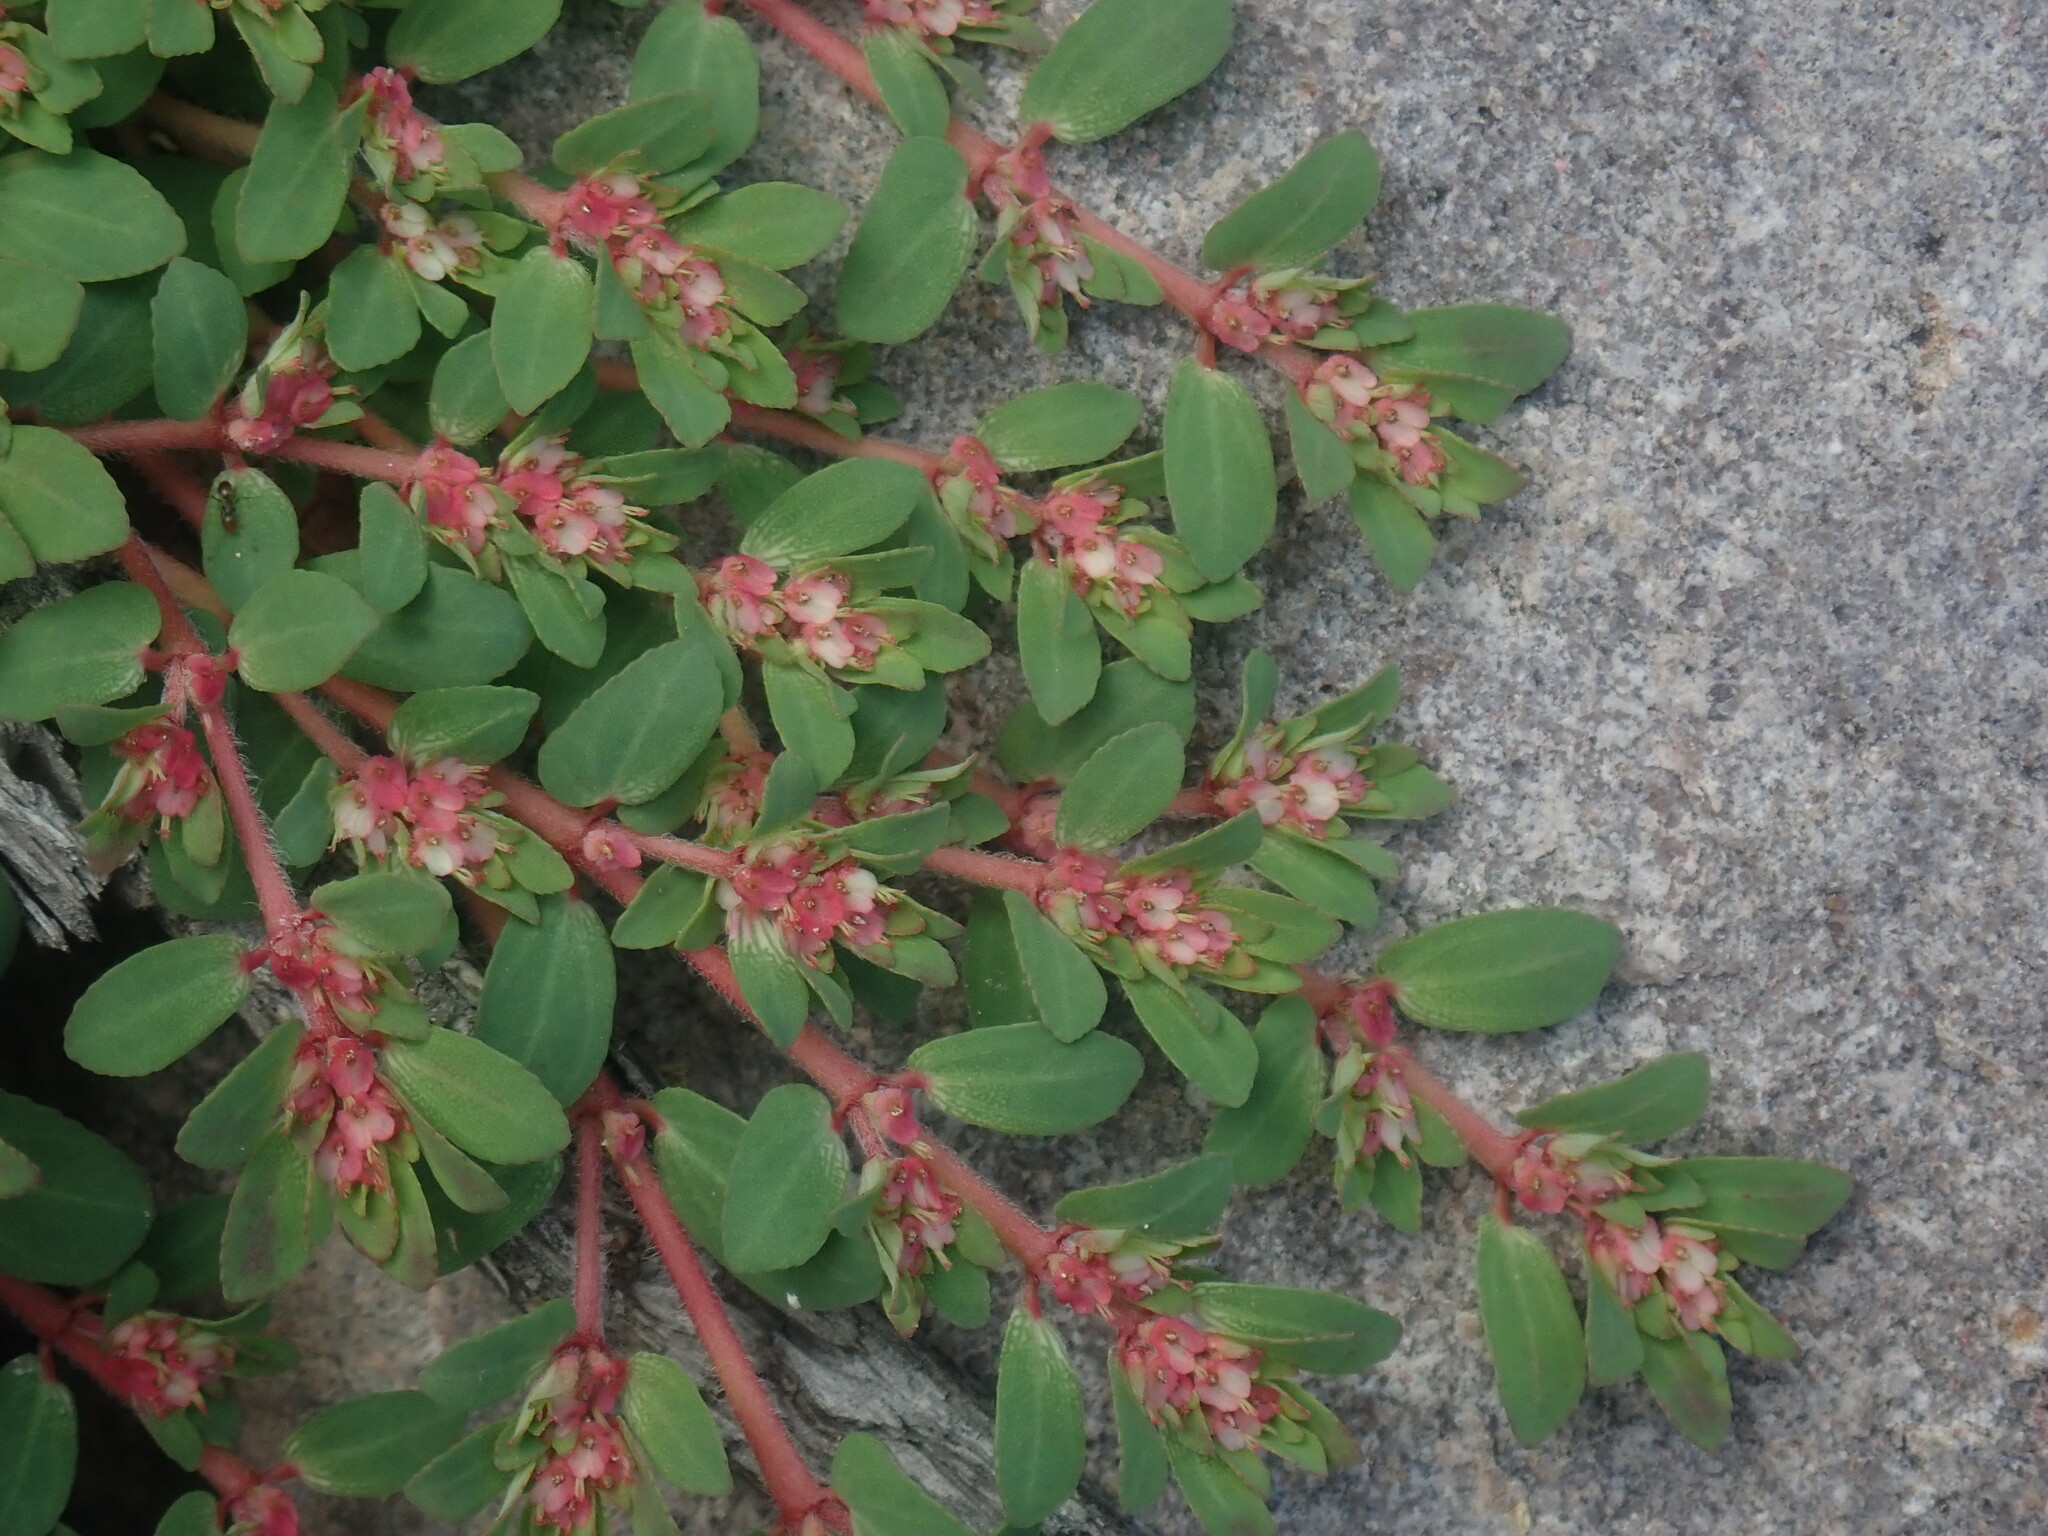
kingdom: Plantae
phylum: Tracheophyta
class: Magnoliopsida
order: Malpighiales
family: Euphorbiaceae
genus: Euphorbia
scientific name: Euphorbia indivisa
